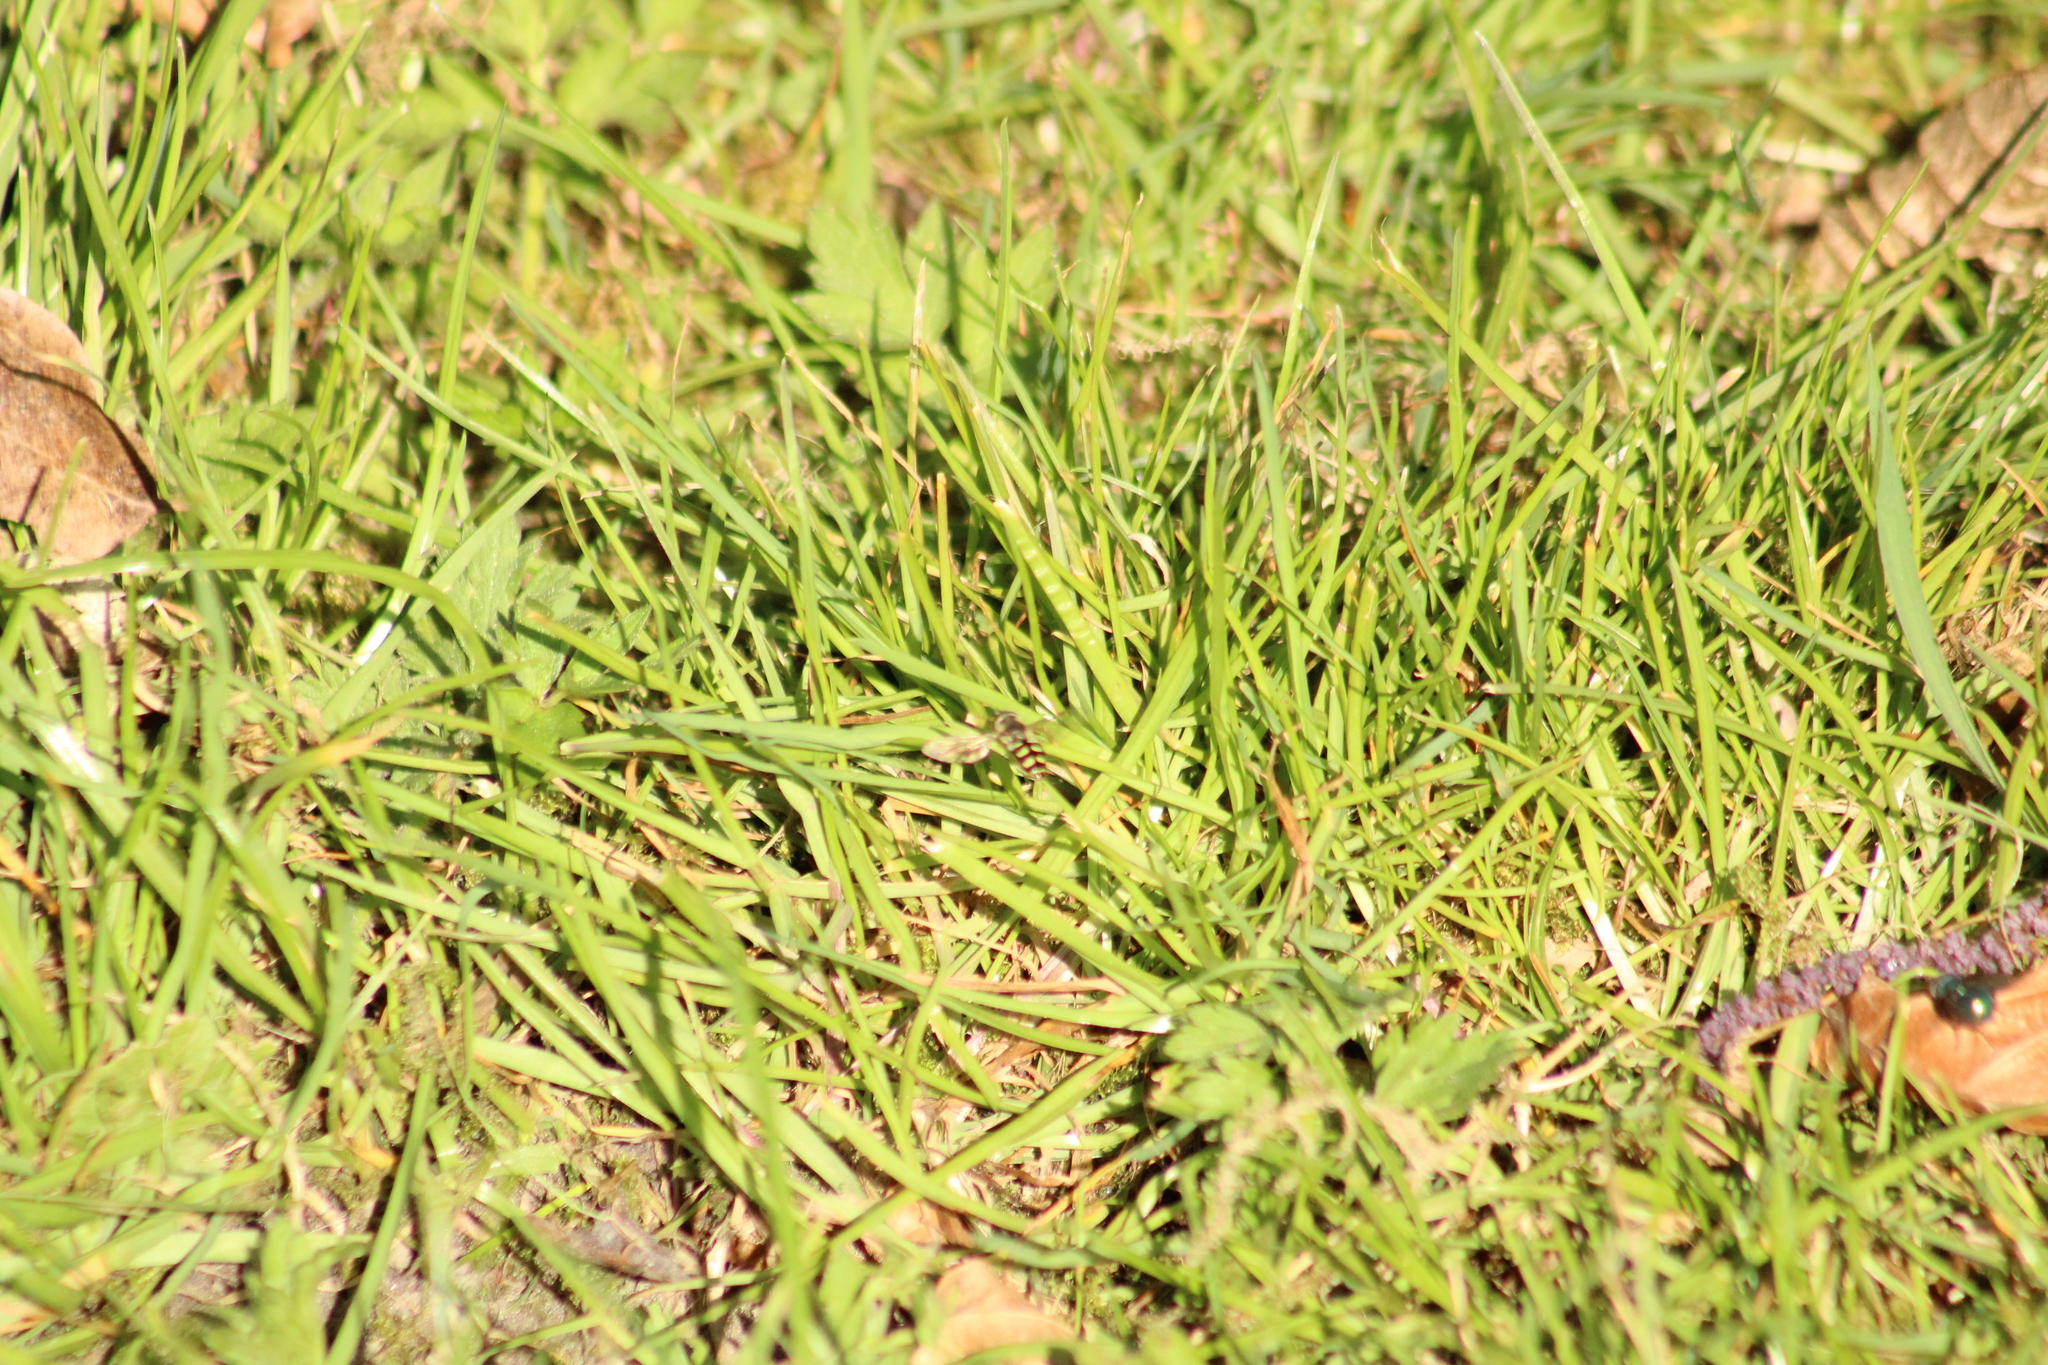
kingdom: Animalia
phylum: Arthropoda
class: Insecta
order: Diptera
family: Syrphidae
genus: Eupeodes
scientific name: Eupeodes
